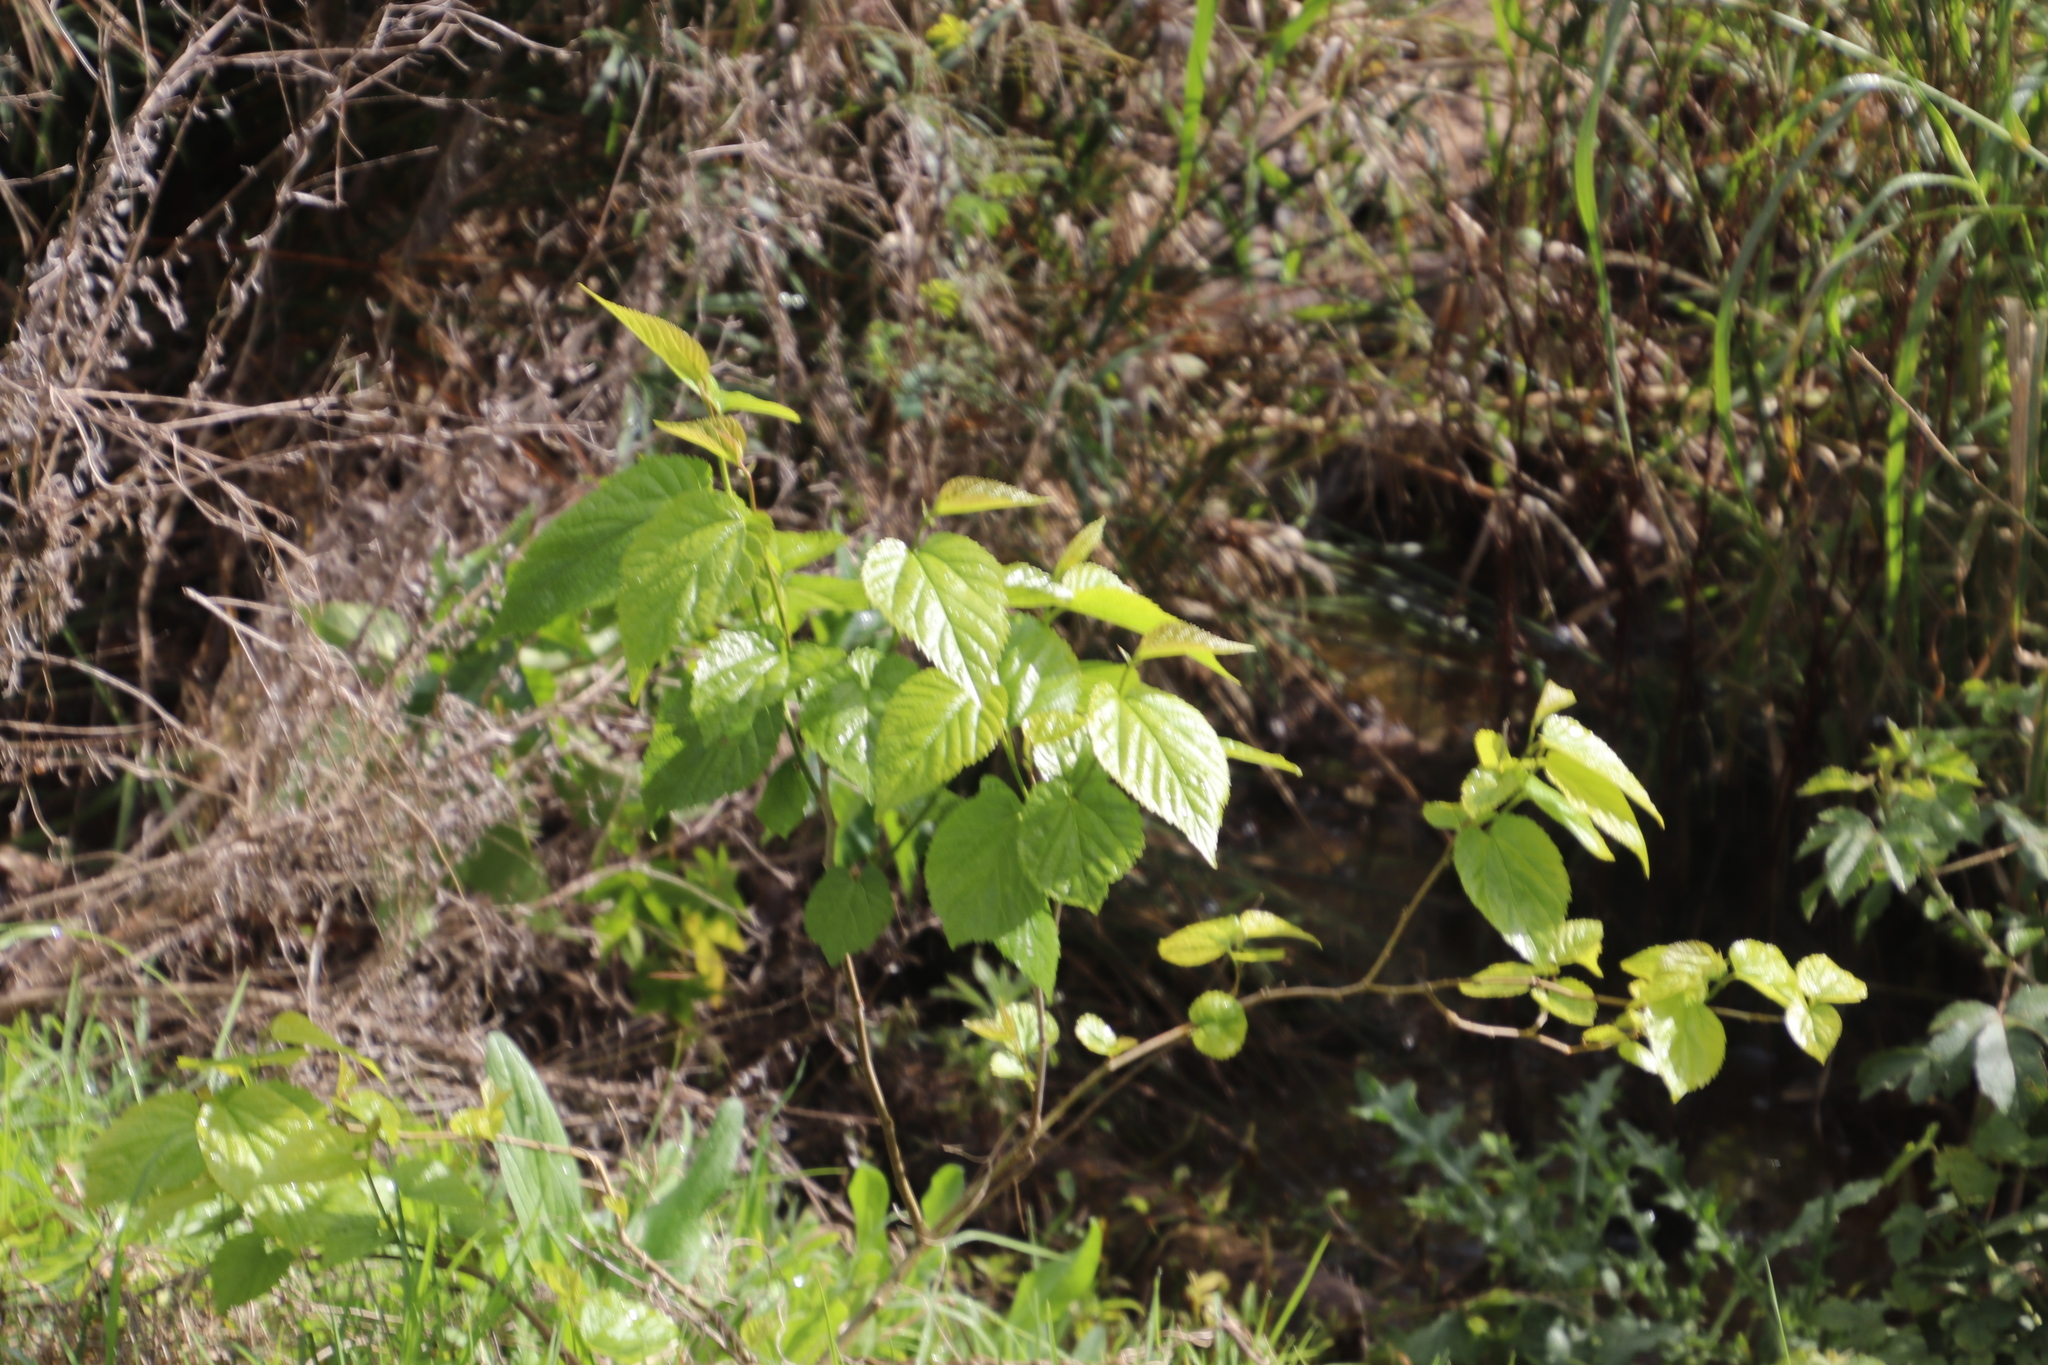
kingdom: Plantae
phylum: Tracheophyta
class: Magnoliopsida
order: Rosales
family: Moraceae
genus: Morus
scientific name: Morus alba
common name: White mulberry
